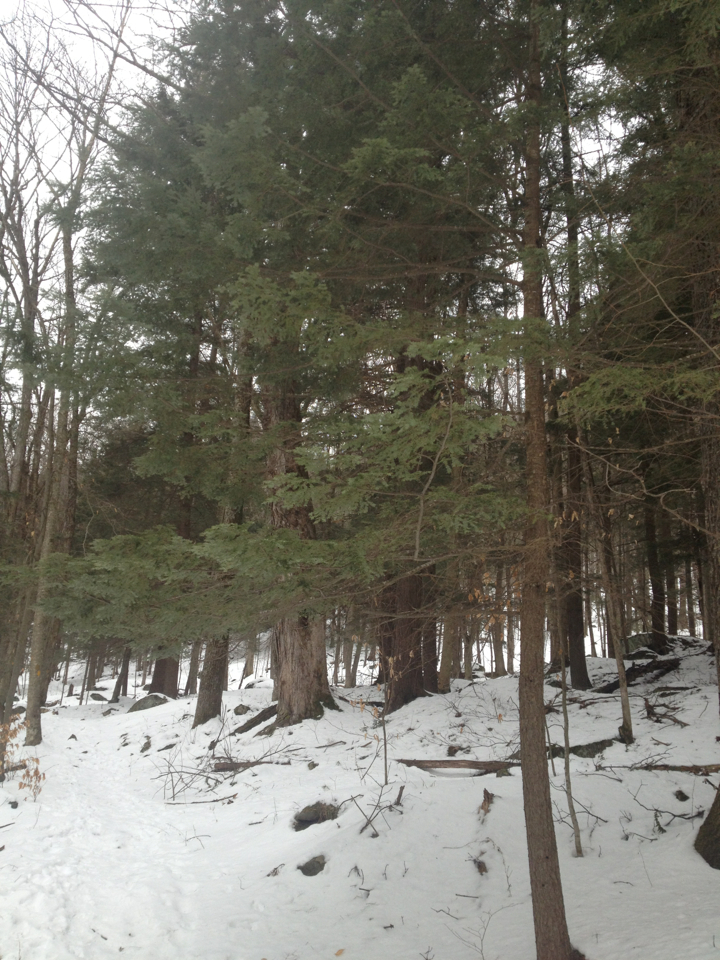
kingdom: Plantae
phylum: Tracheophyta
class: Pinopsida
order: Pinales
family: Pinaceae
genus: Tsuga
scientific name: Tsuga canadensis
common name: Eastern hemlock
